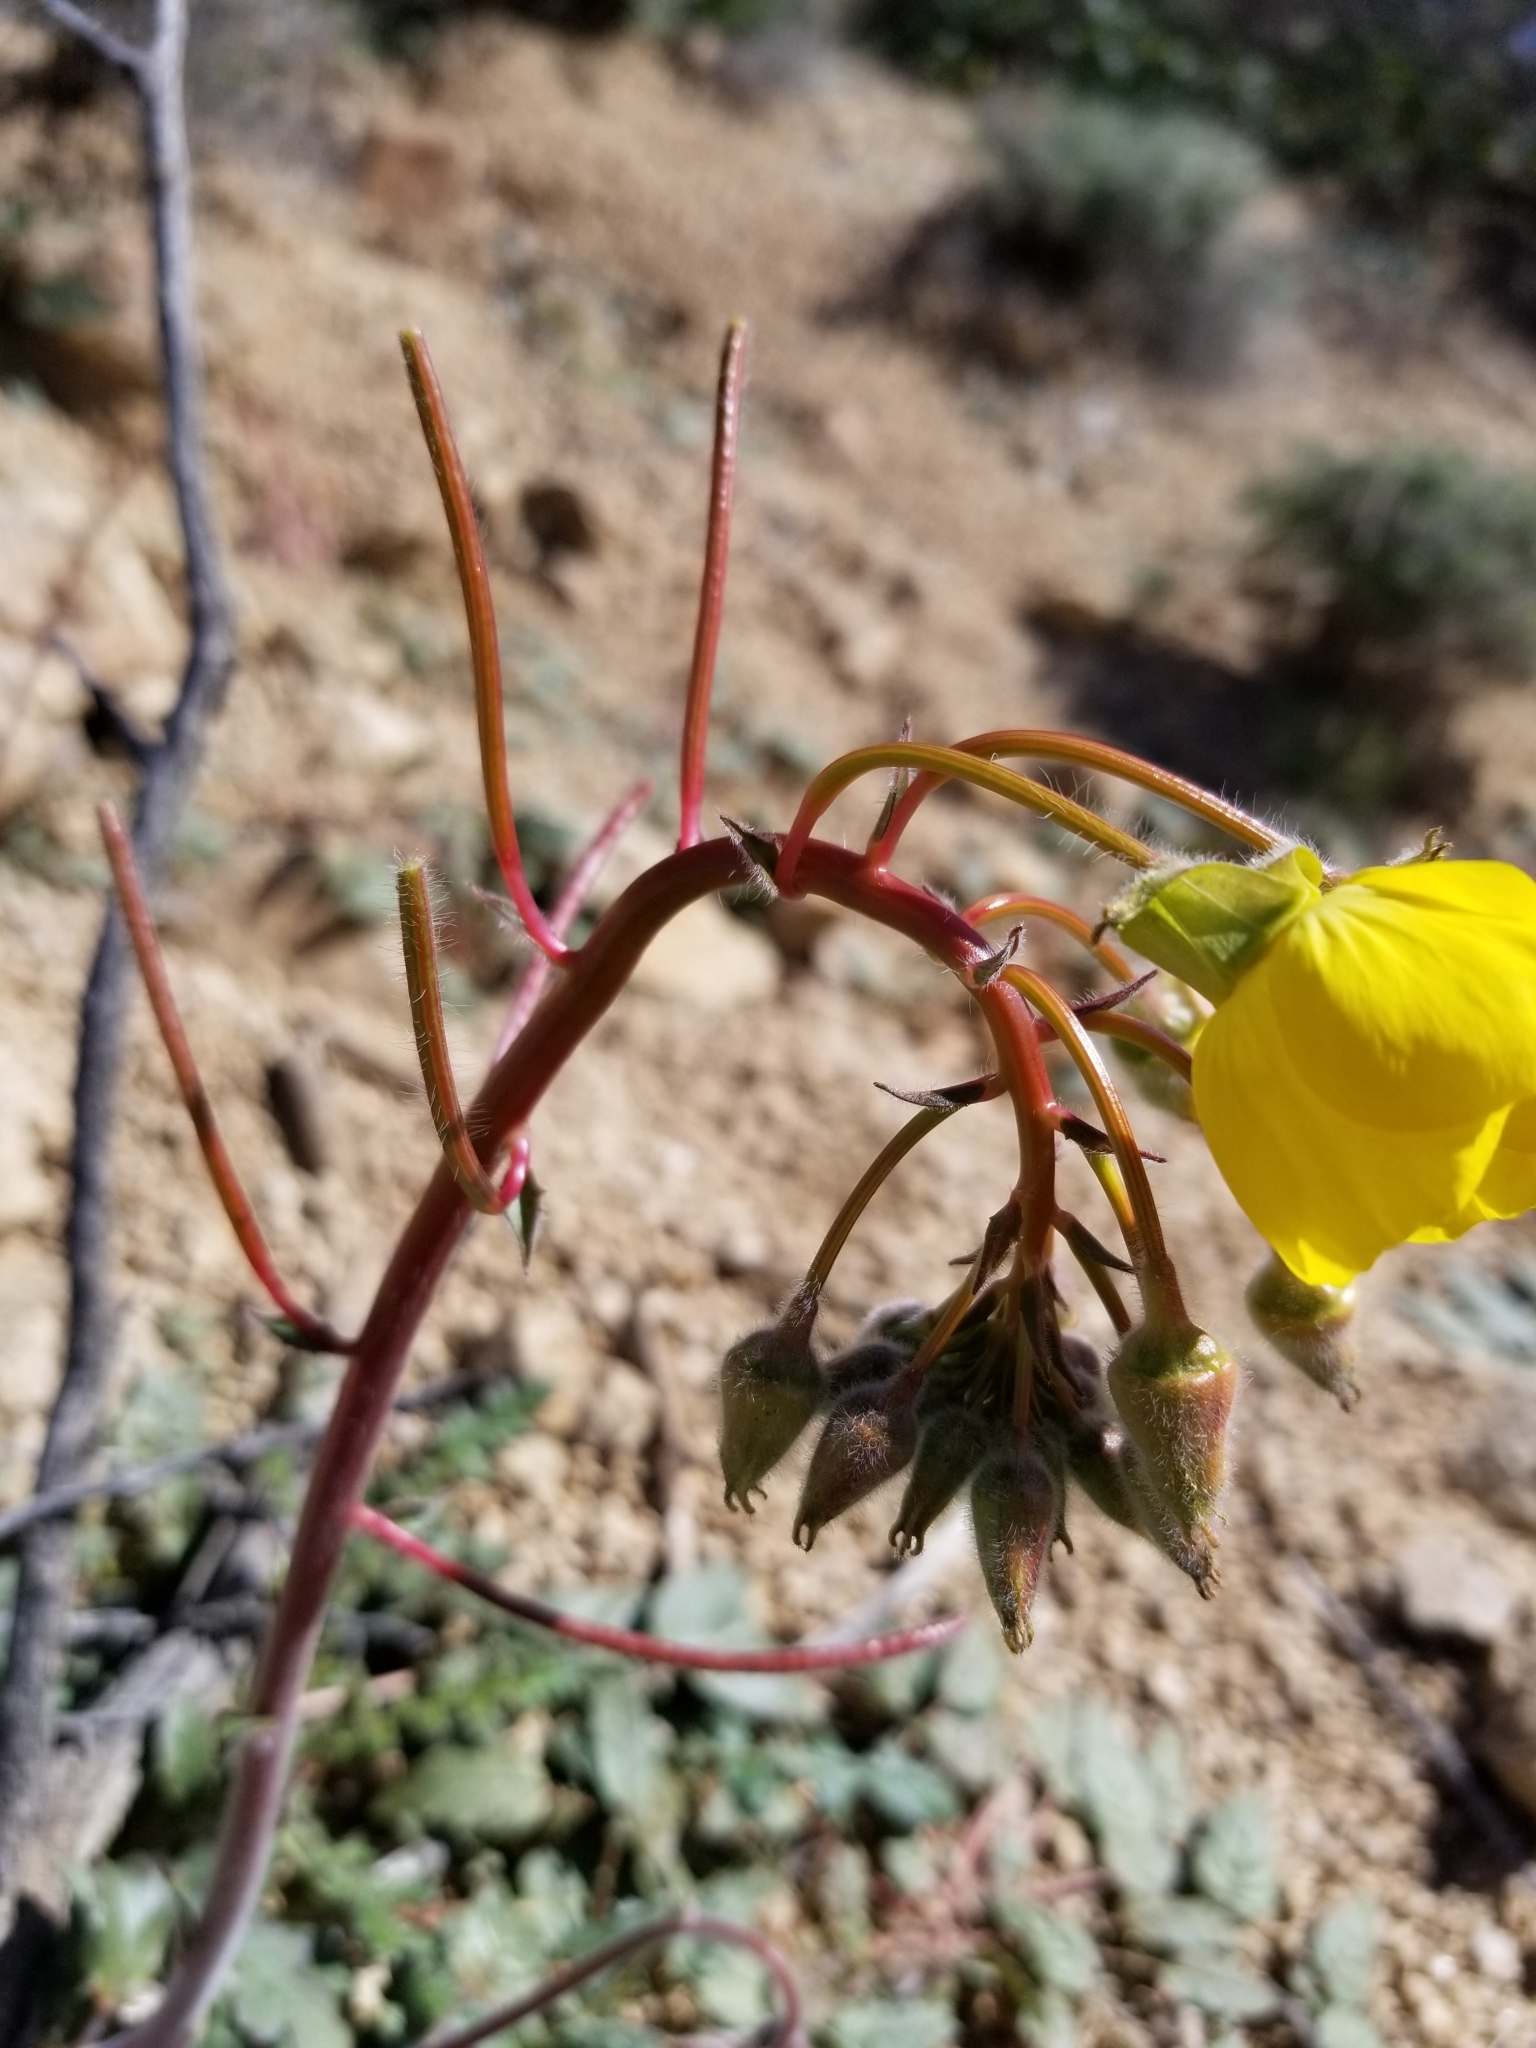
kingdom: Plantae
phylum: Tracheophyta
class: Magnoliopsida
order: Myrtales
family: Onagraceae
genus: Chylismia
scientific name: Chylismia brevipes
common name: Yellow cups
